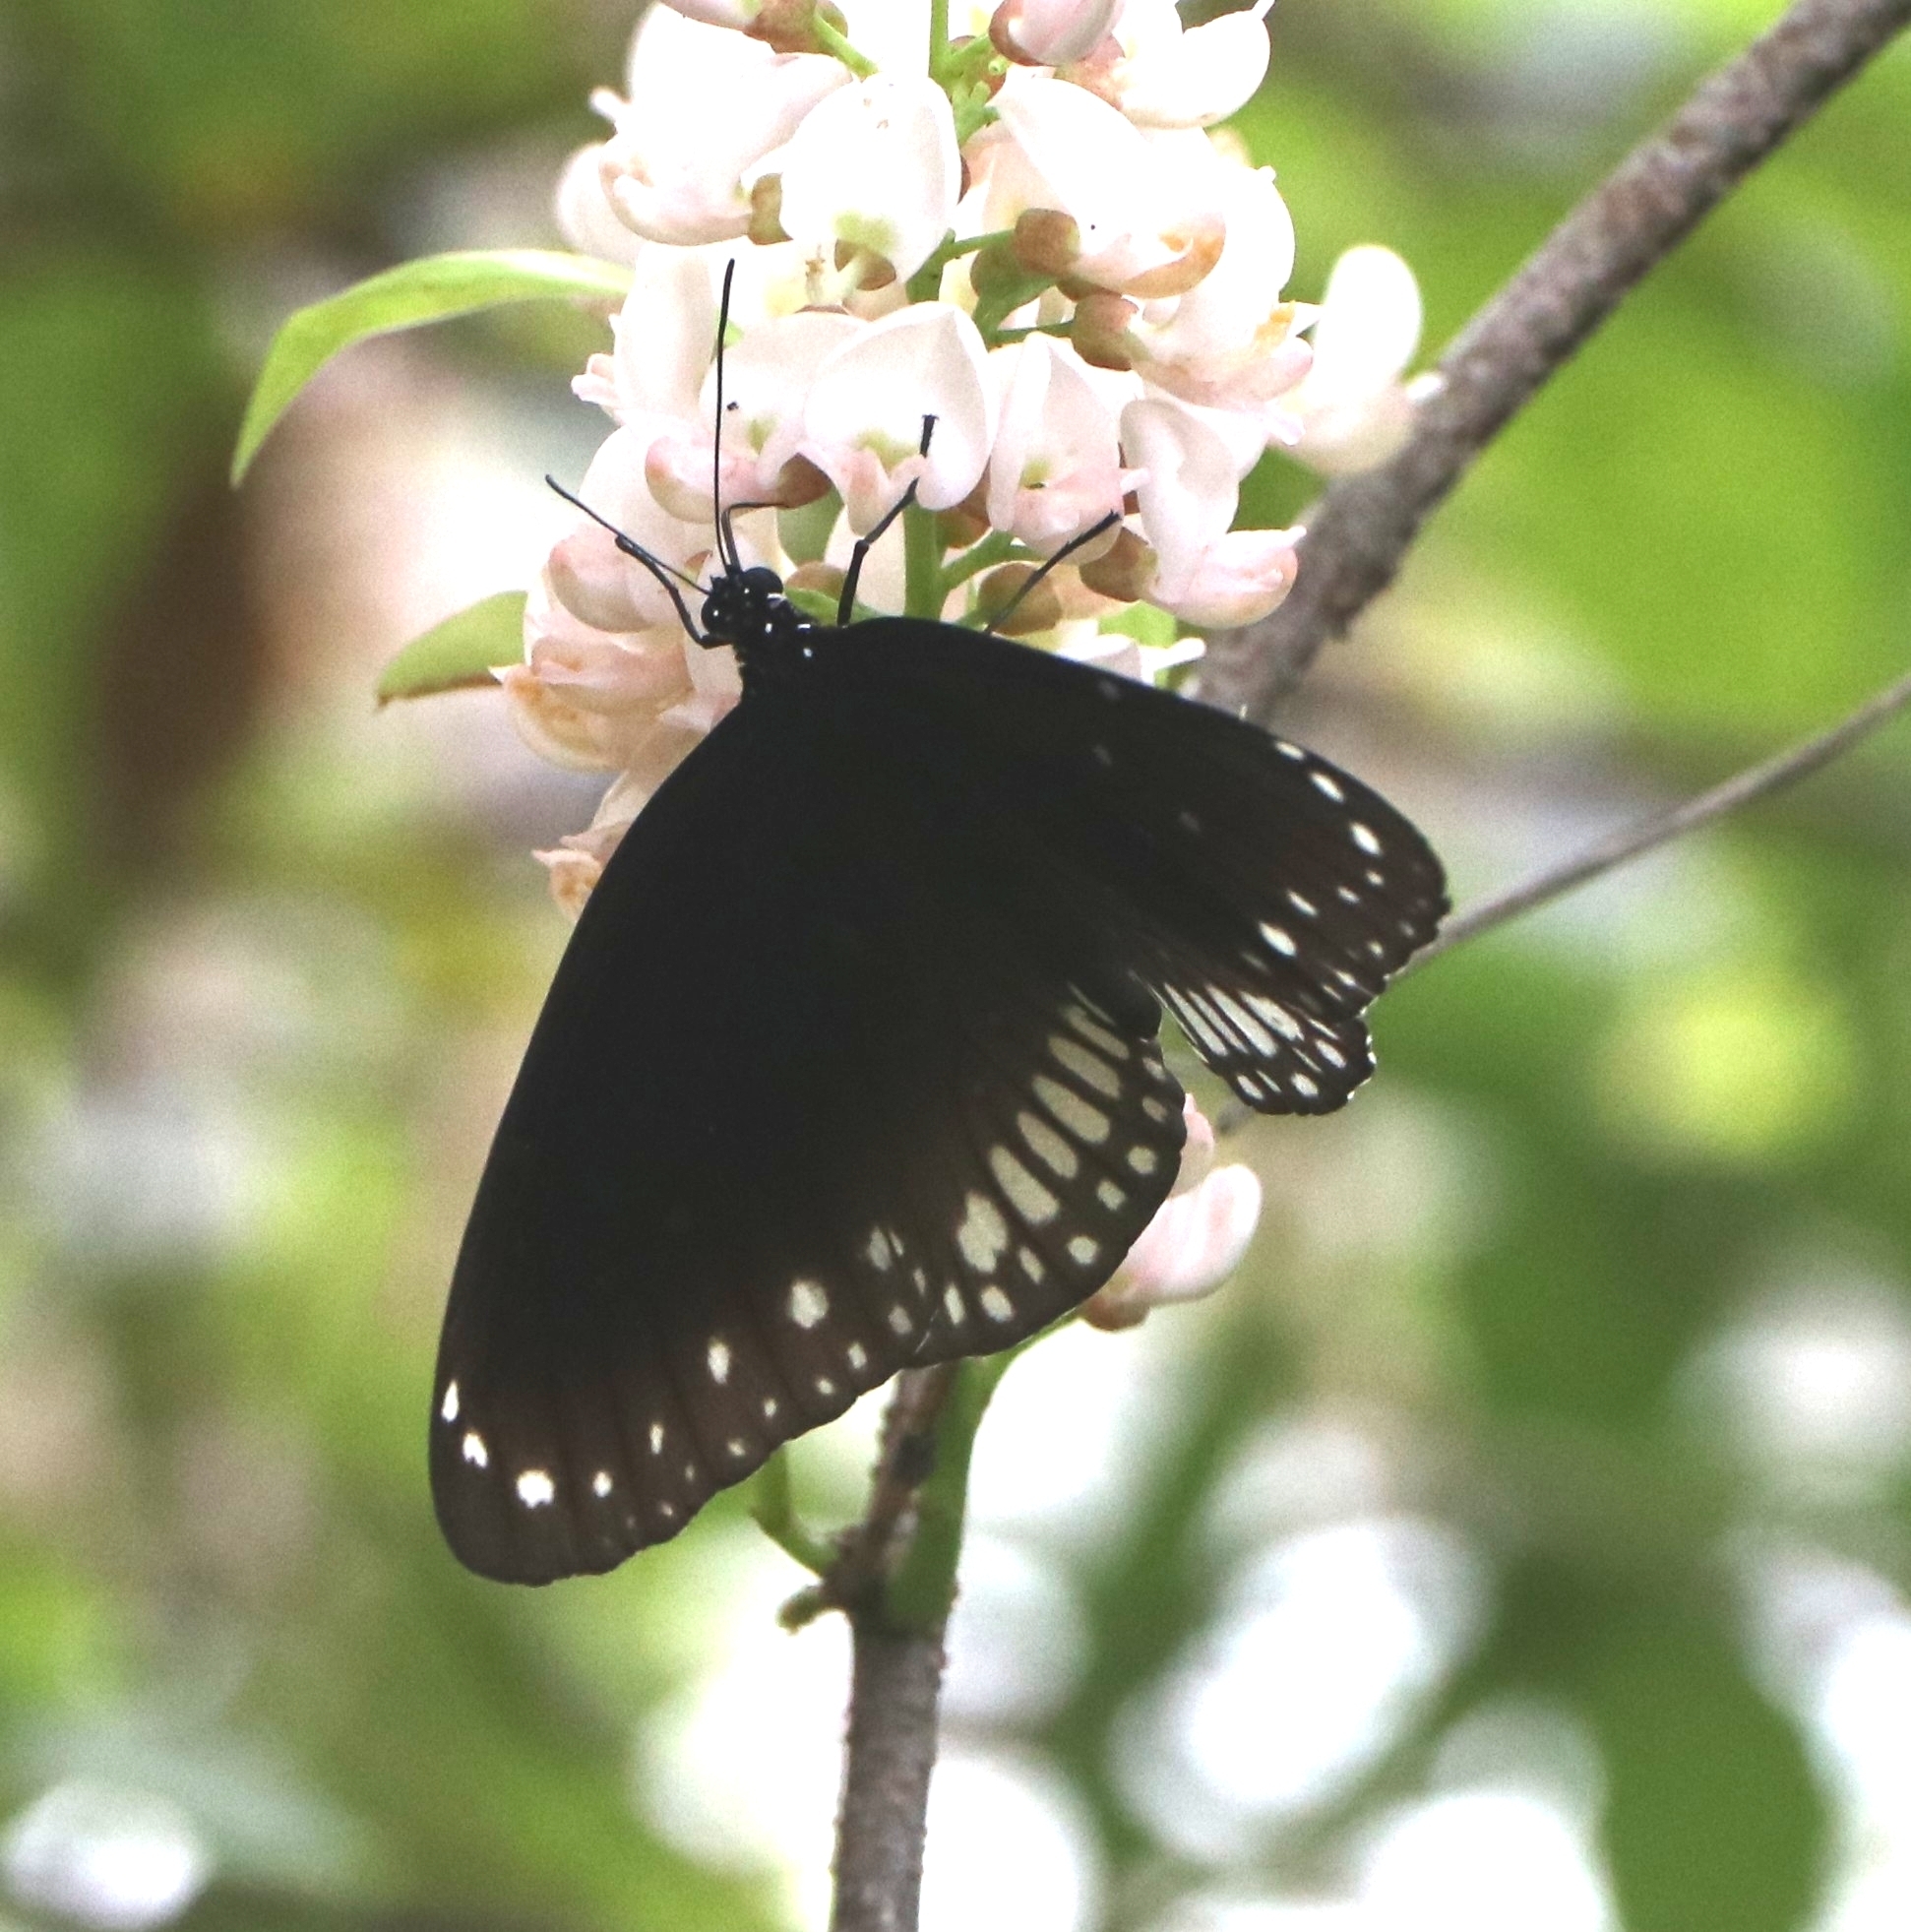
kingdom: Animalia
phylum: Arthropoda
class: Insecta
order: Lepidoptera
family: Nymphalidae
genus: Euploea
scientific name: Euploea core
